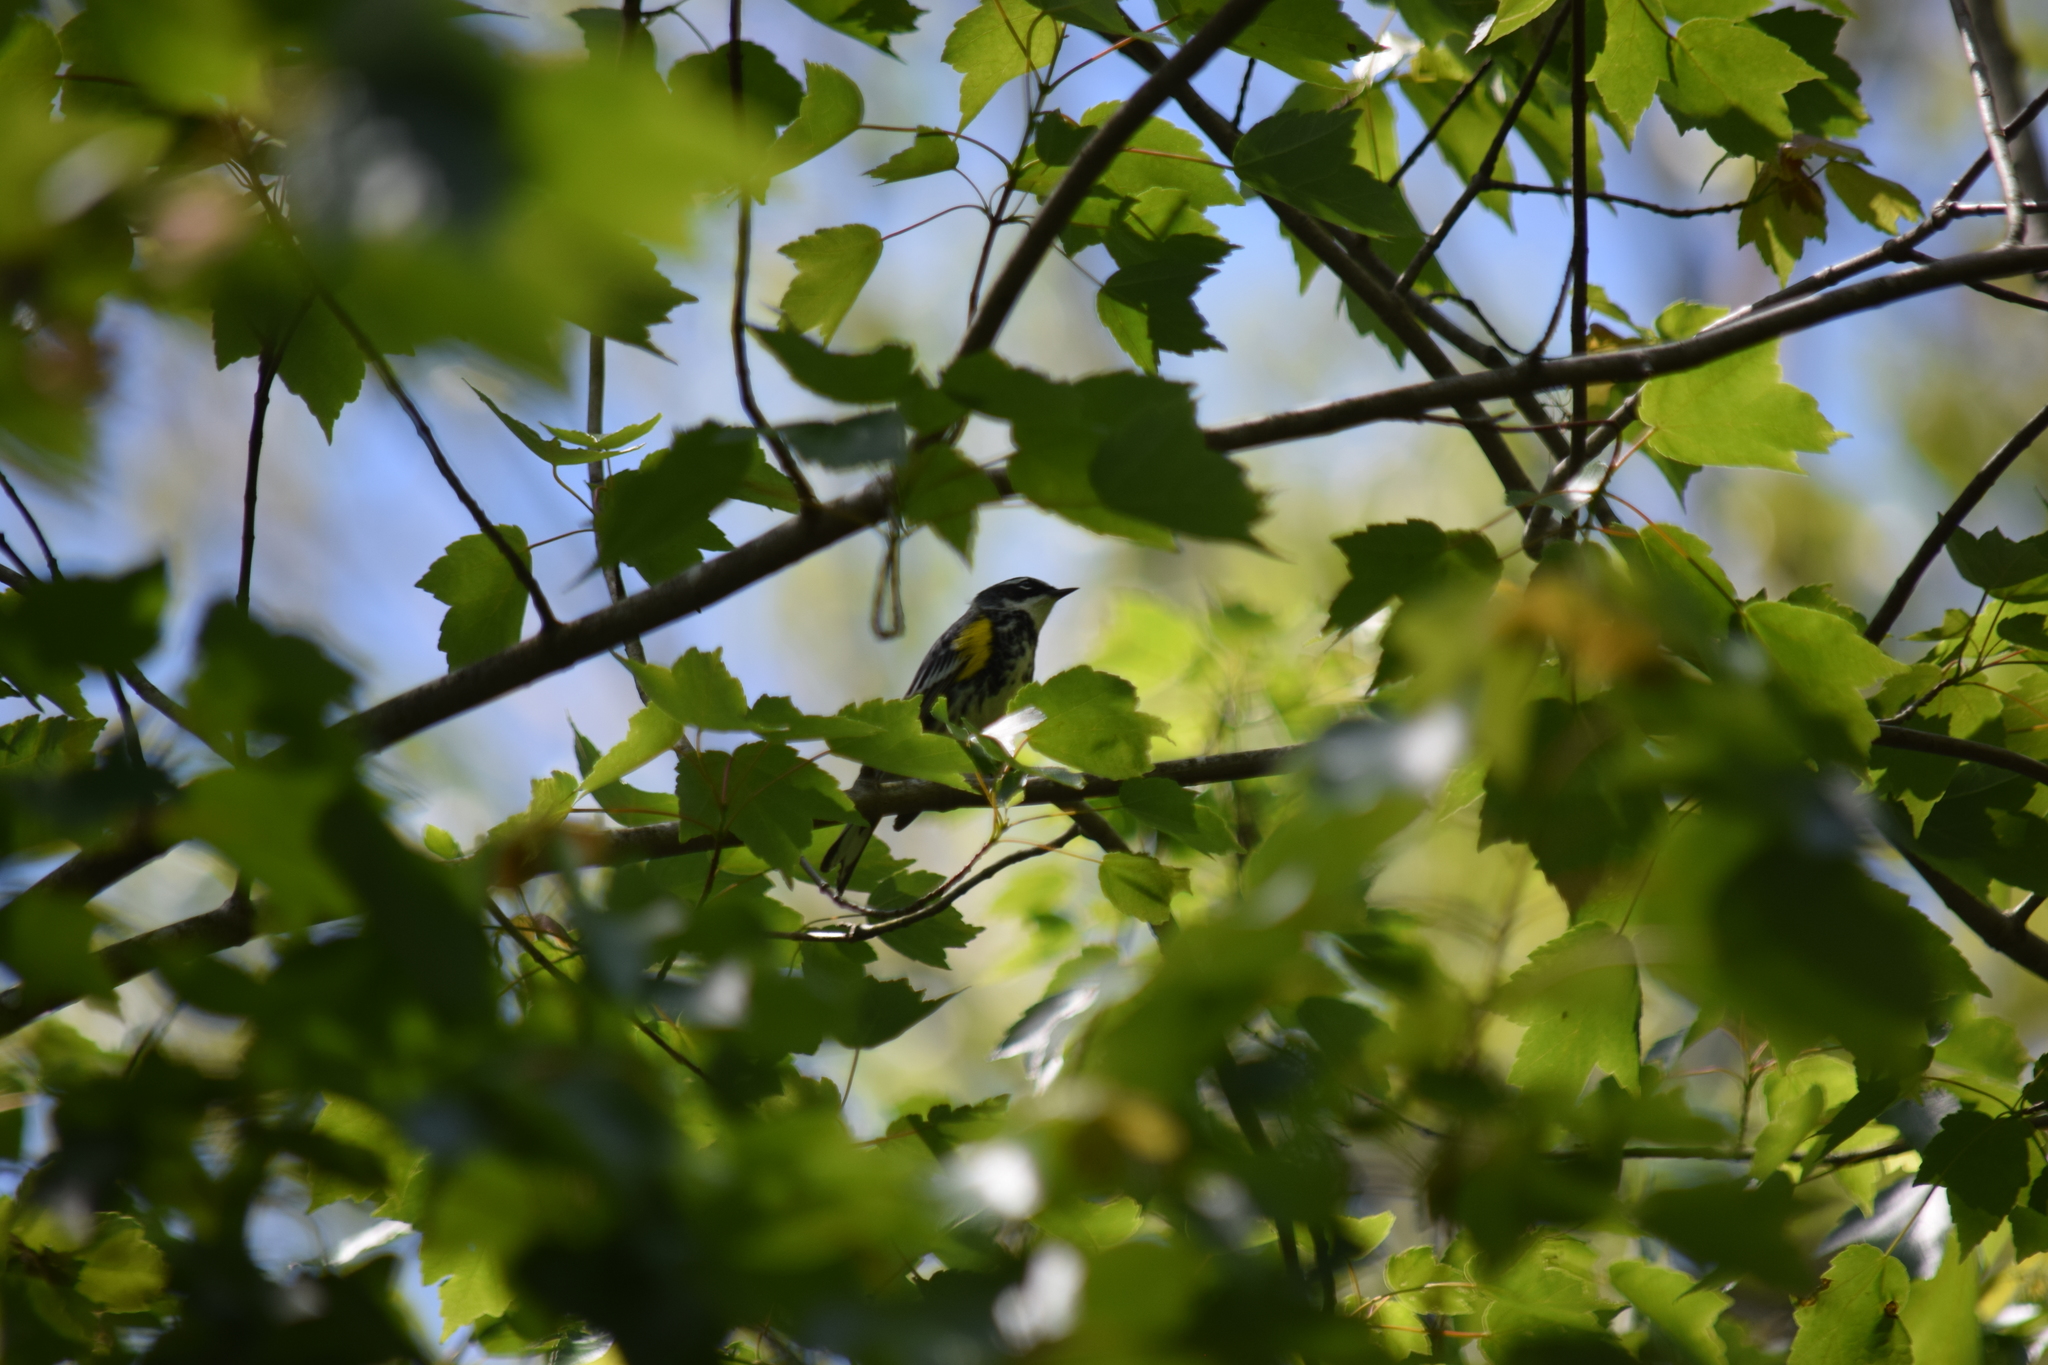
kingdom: Animalia
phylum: Chordata
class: Aves
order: Passeriformes
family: Parulidae
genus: Setophaga
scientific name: Setophaga coronata
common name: Myrtle warbler
